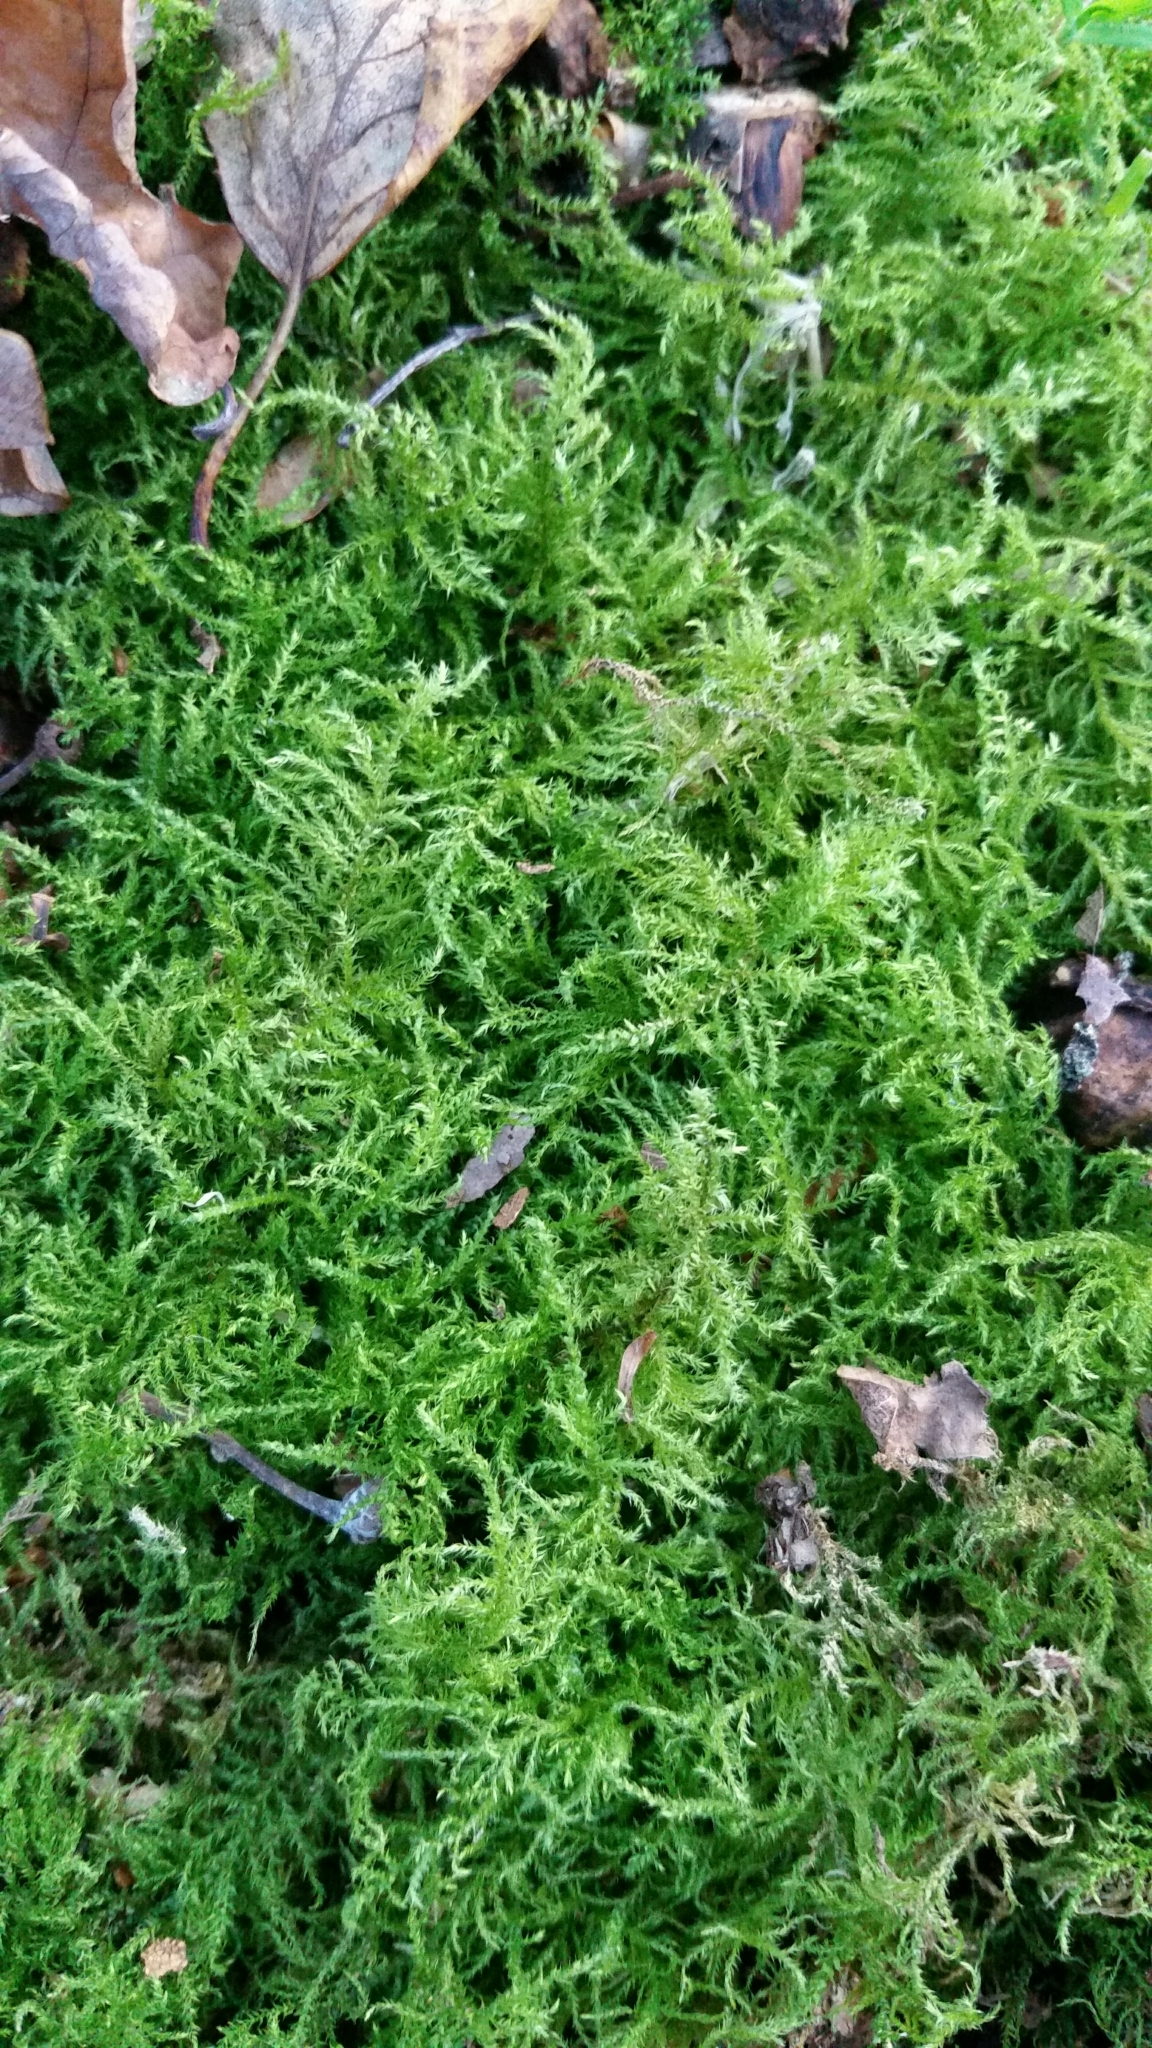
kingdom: Plantae
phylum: Bryophyta
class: Bryopsida
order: Hypnales
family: Brachytheciaceae
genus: Kindbergia
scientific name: Kindbergia praelonga
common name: Slender beaked moss
